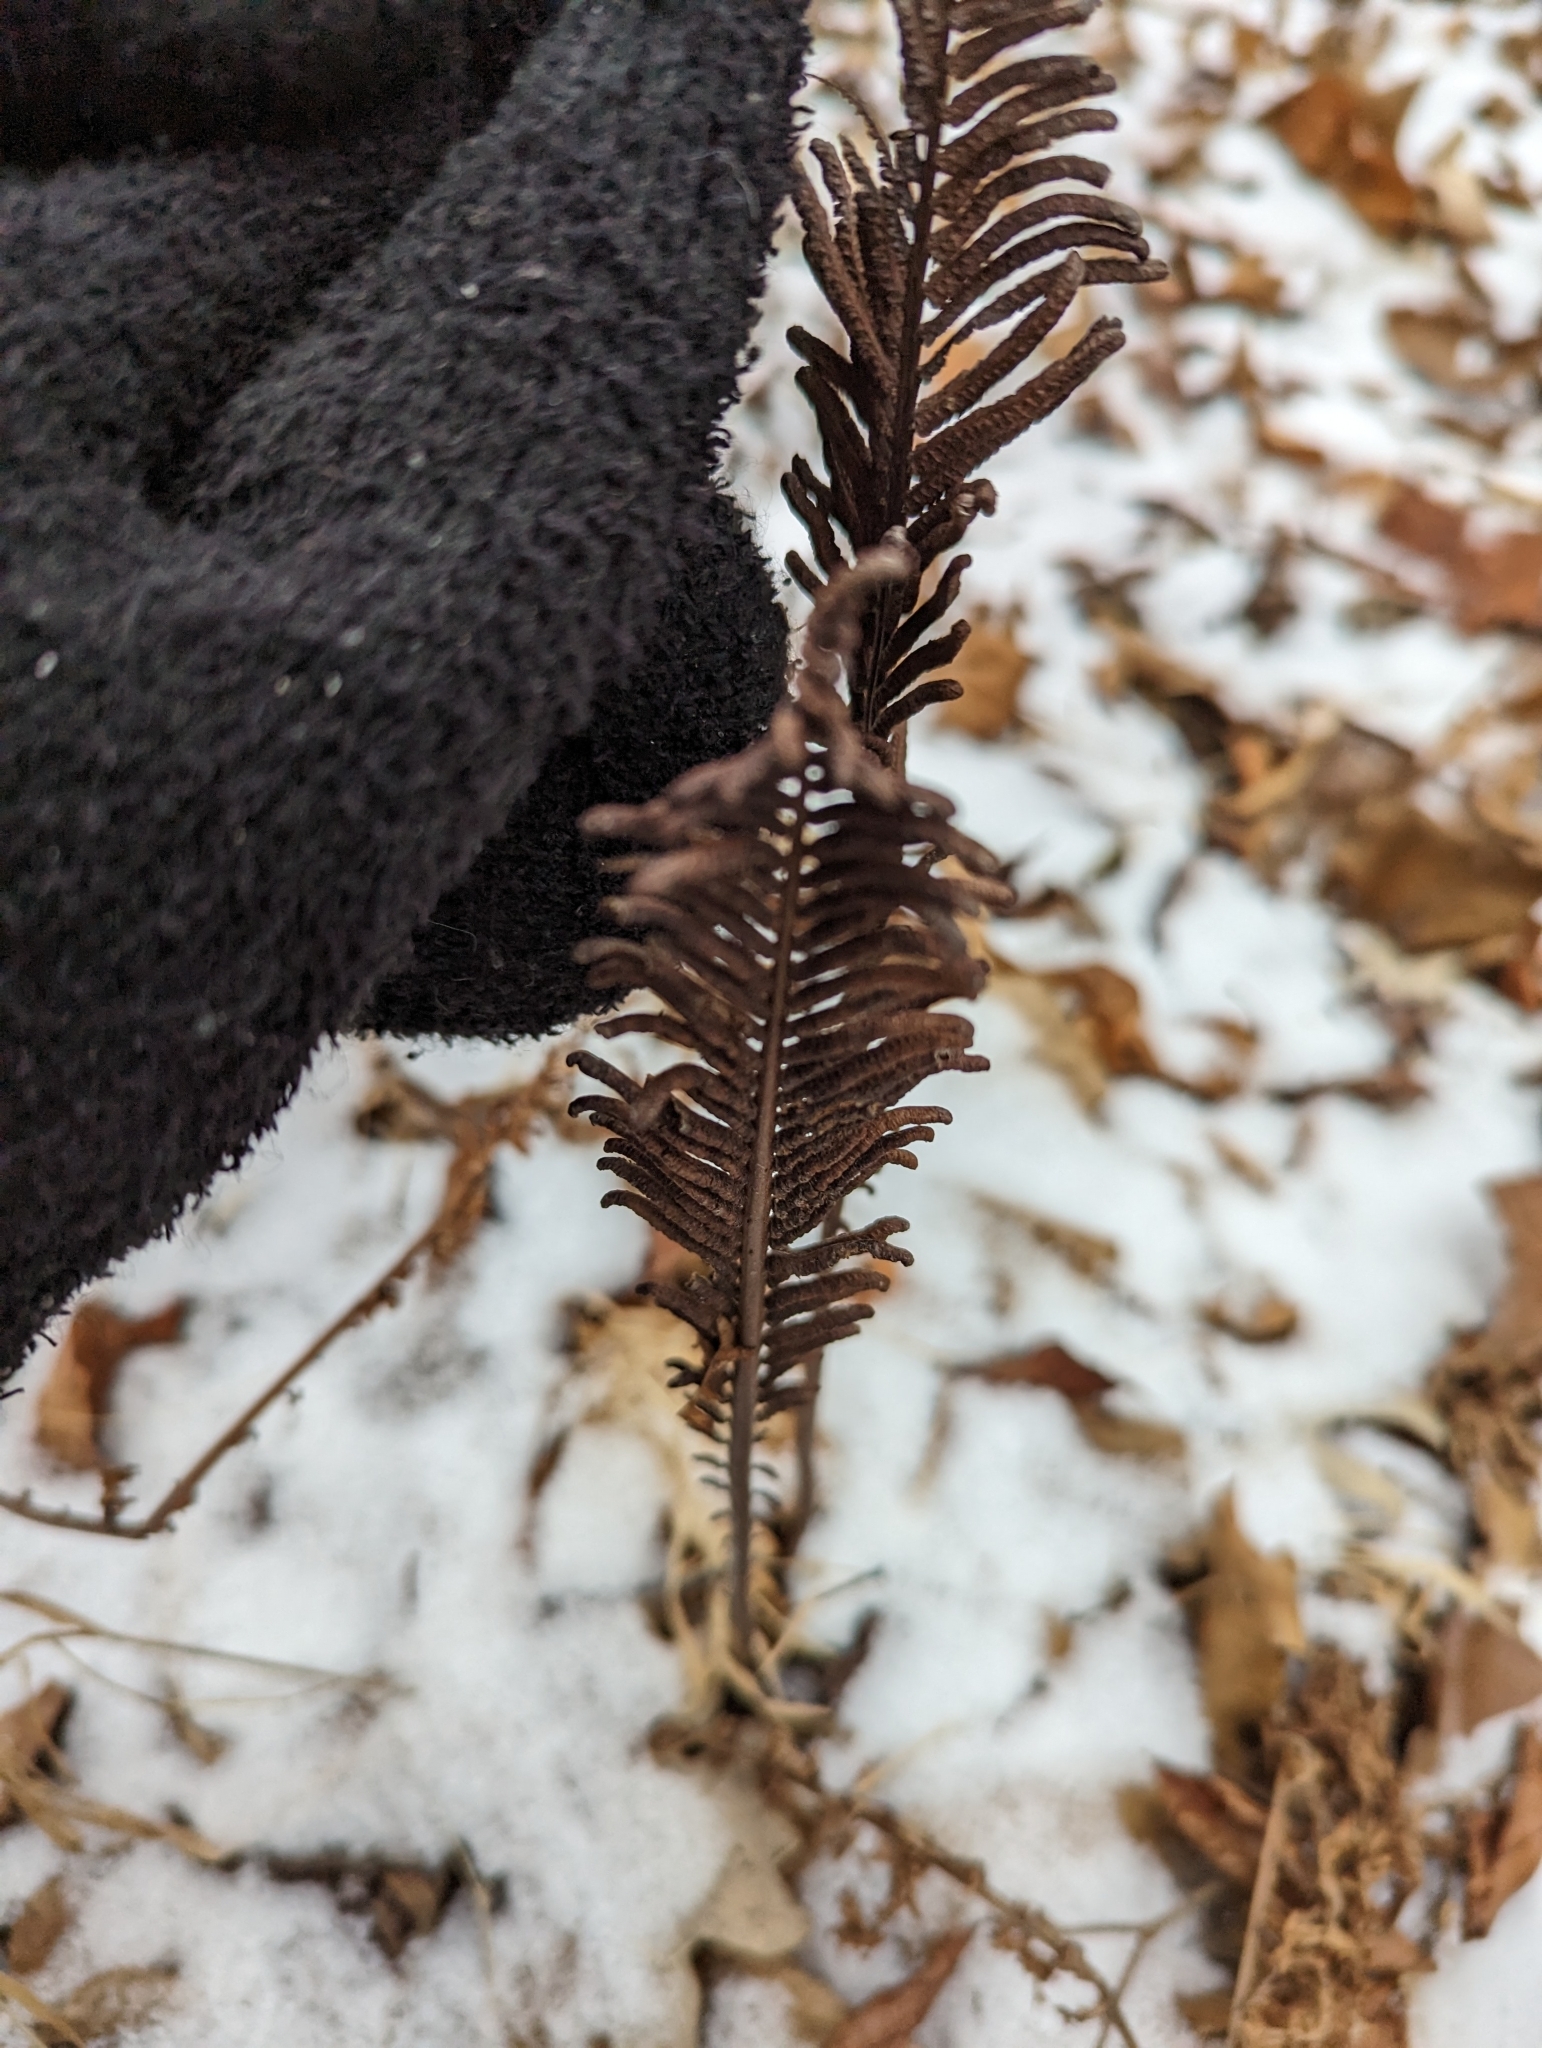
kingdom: Plantae
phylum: Tracheophyta
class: Polypodiopsida
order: Polypodiales
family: Onocleaceae
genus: Matteuccia
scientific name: Matteuccia struthiopteris
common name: Ostrich fern
